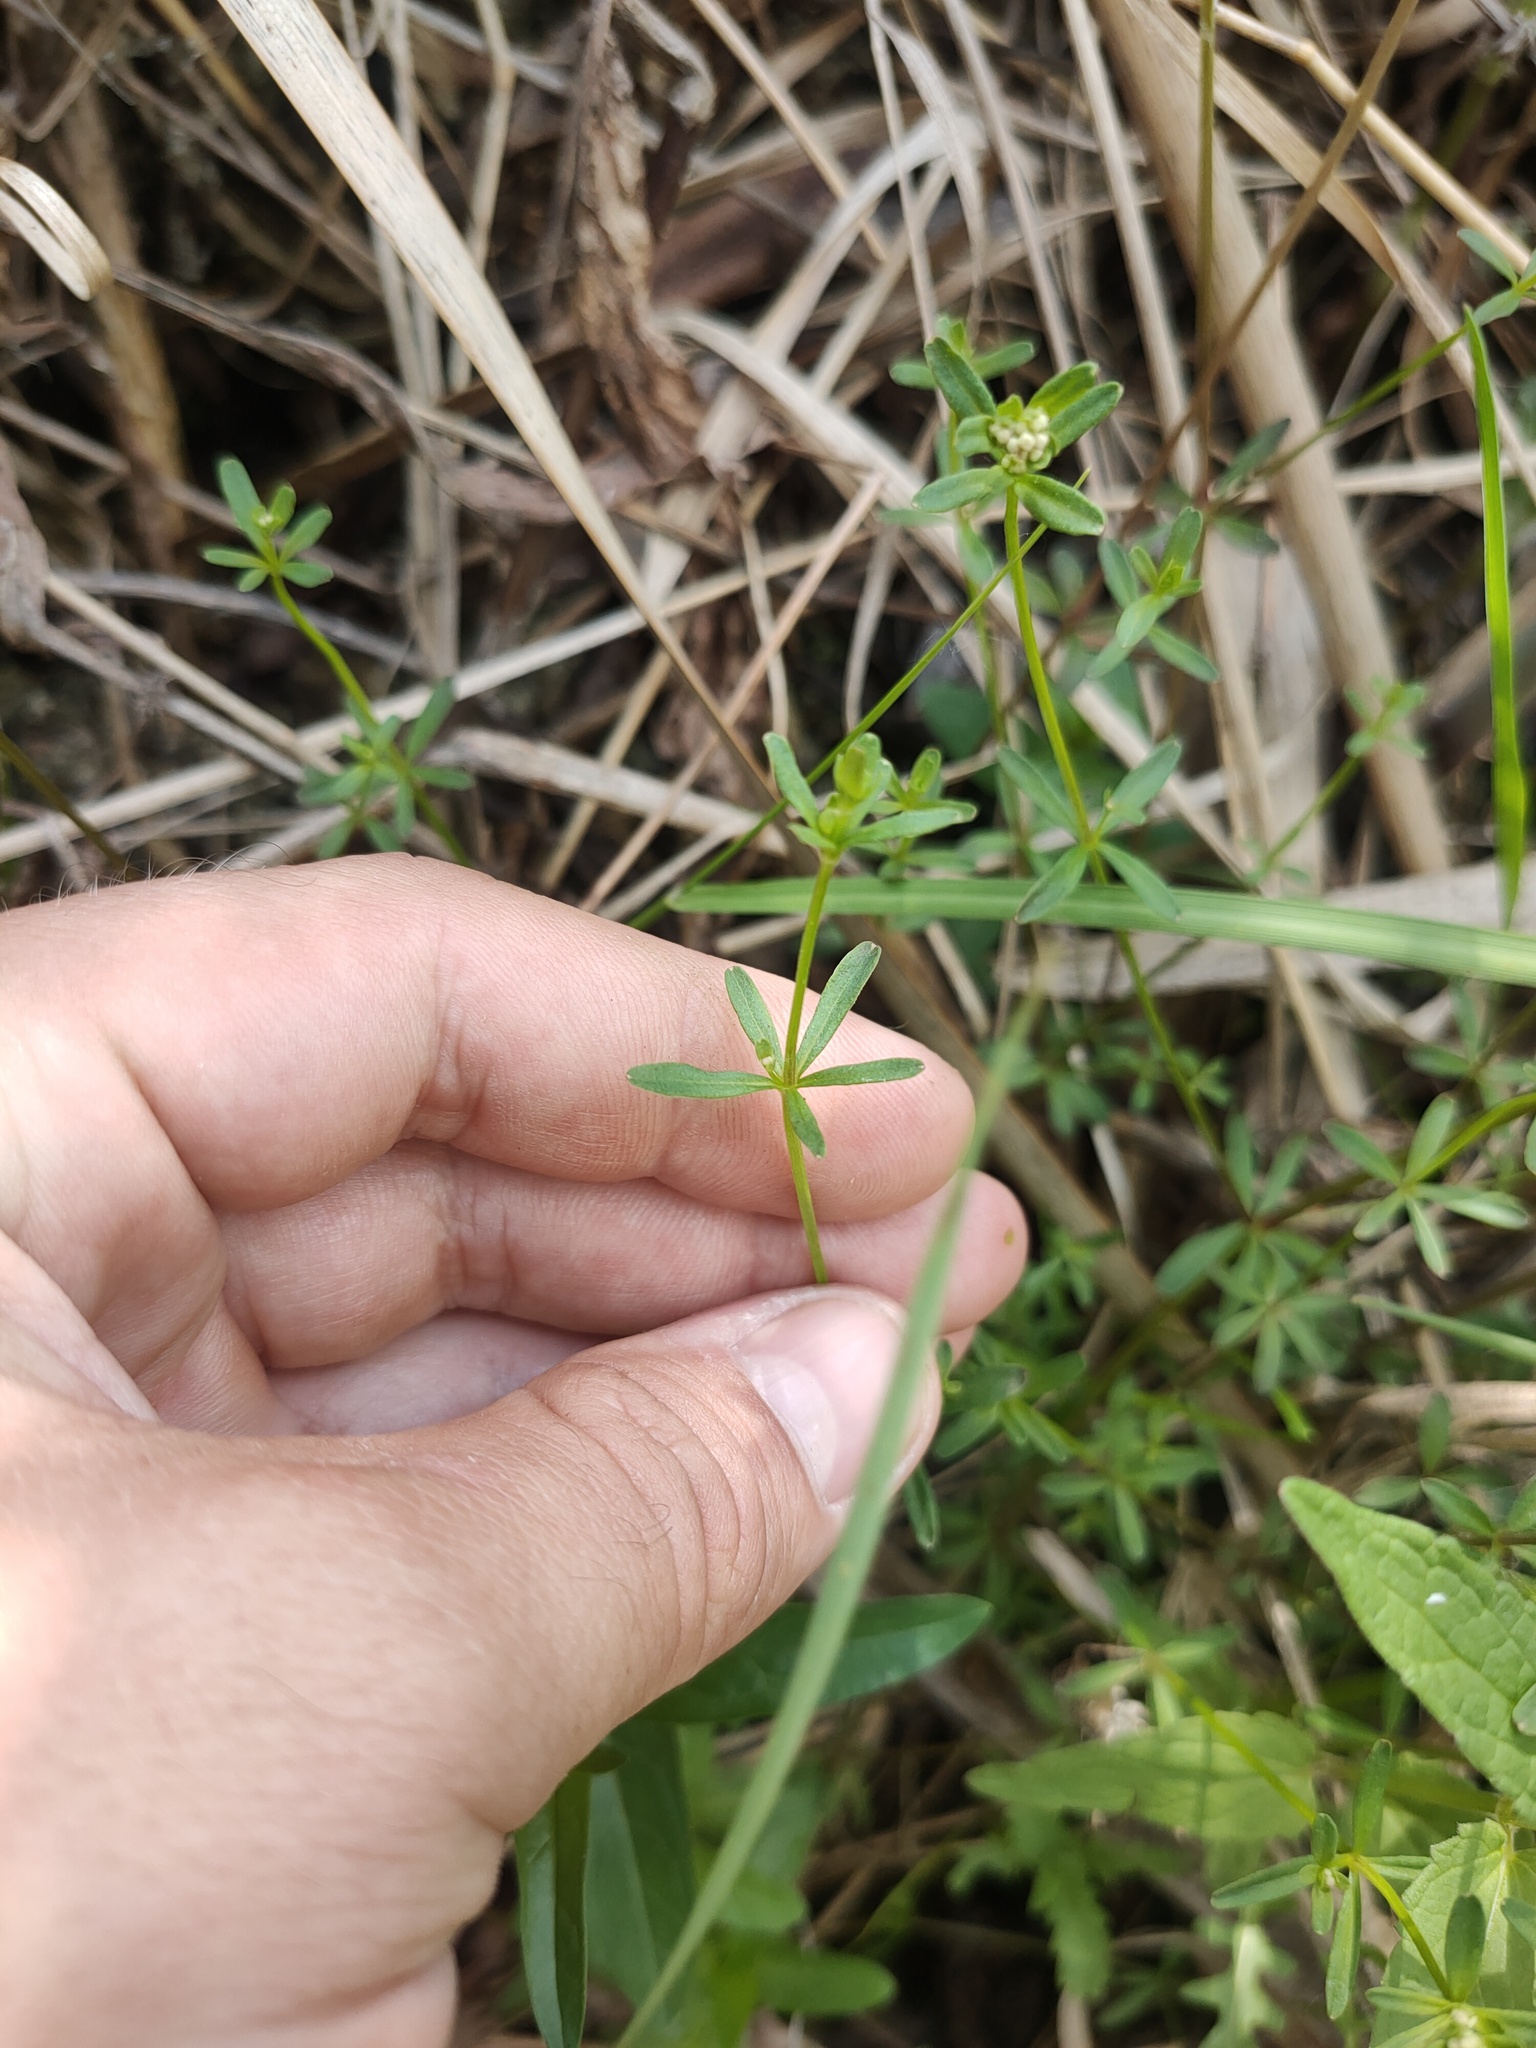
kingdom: Plantae
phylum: Tracheophyta
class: Magnoliopsida
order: Gentianales
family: Rubiaceae
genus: Galium
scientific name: Galium palustre
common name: Common marsh-bedstraw
